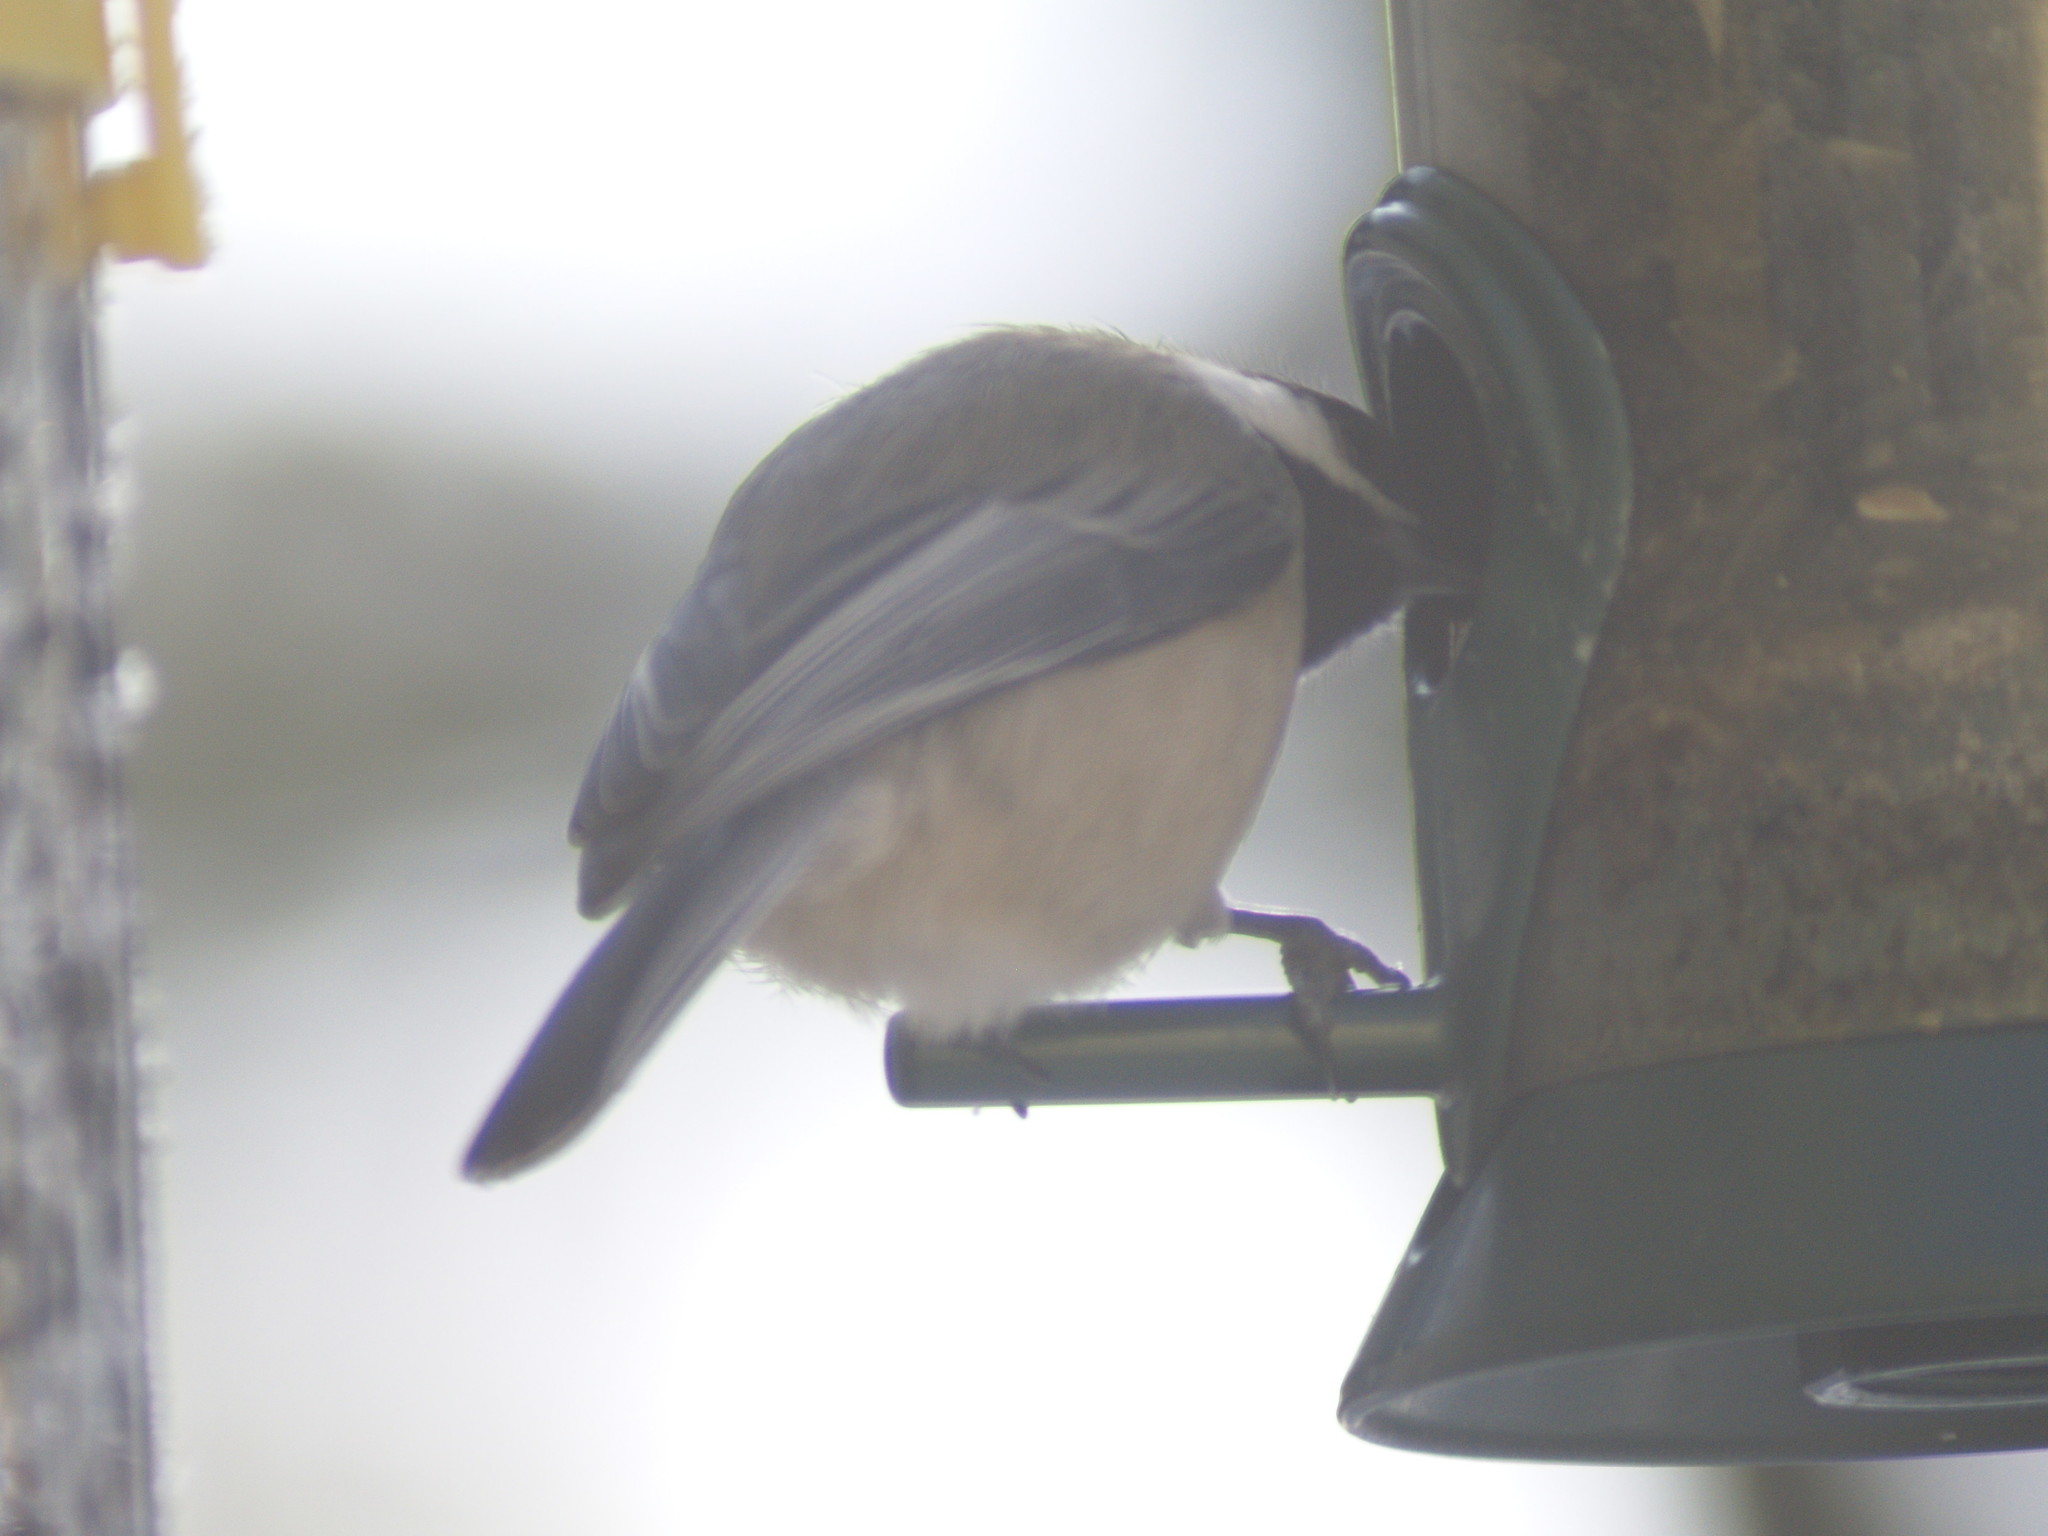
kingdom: Animalia
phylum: Chordata
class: Aves
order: Passeriformes
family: Paridae
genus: Poecile
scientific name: Poecile atricapillus
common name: Black-capped chickadee
